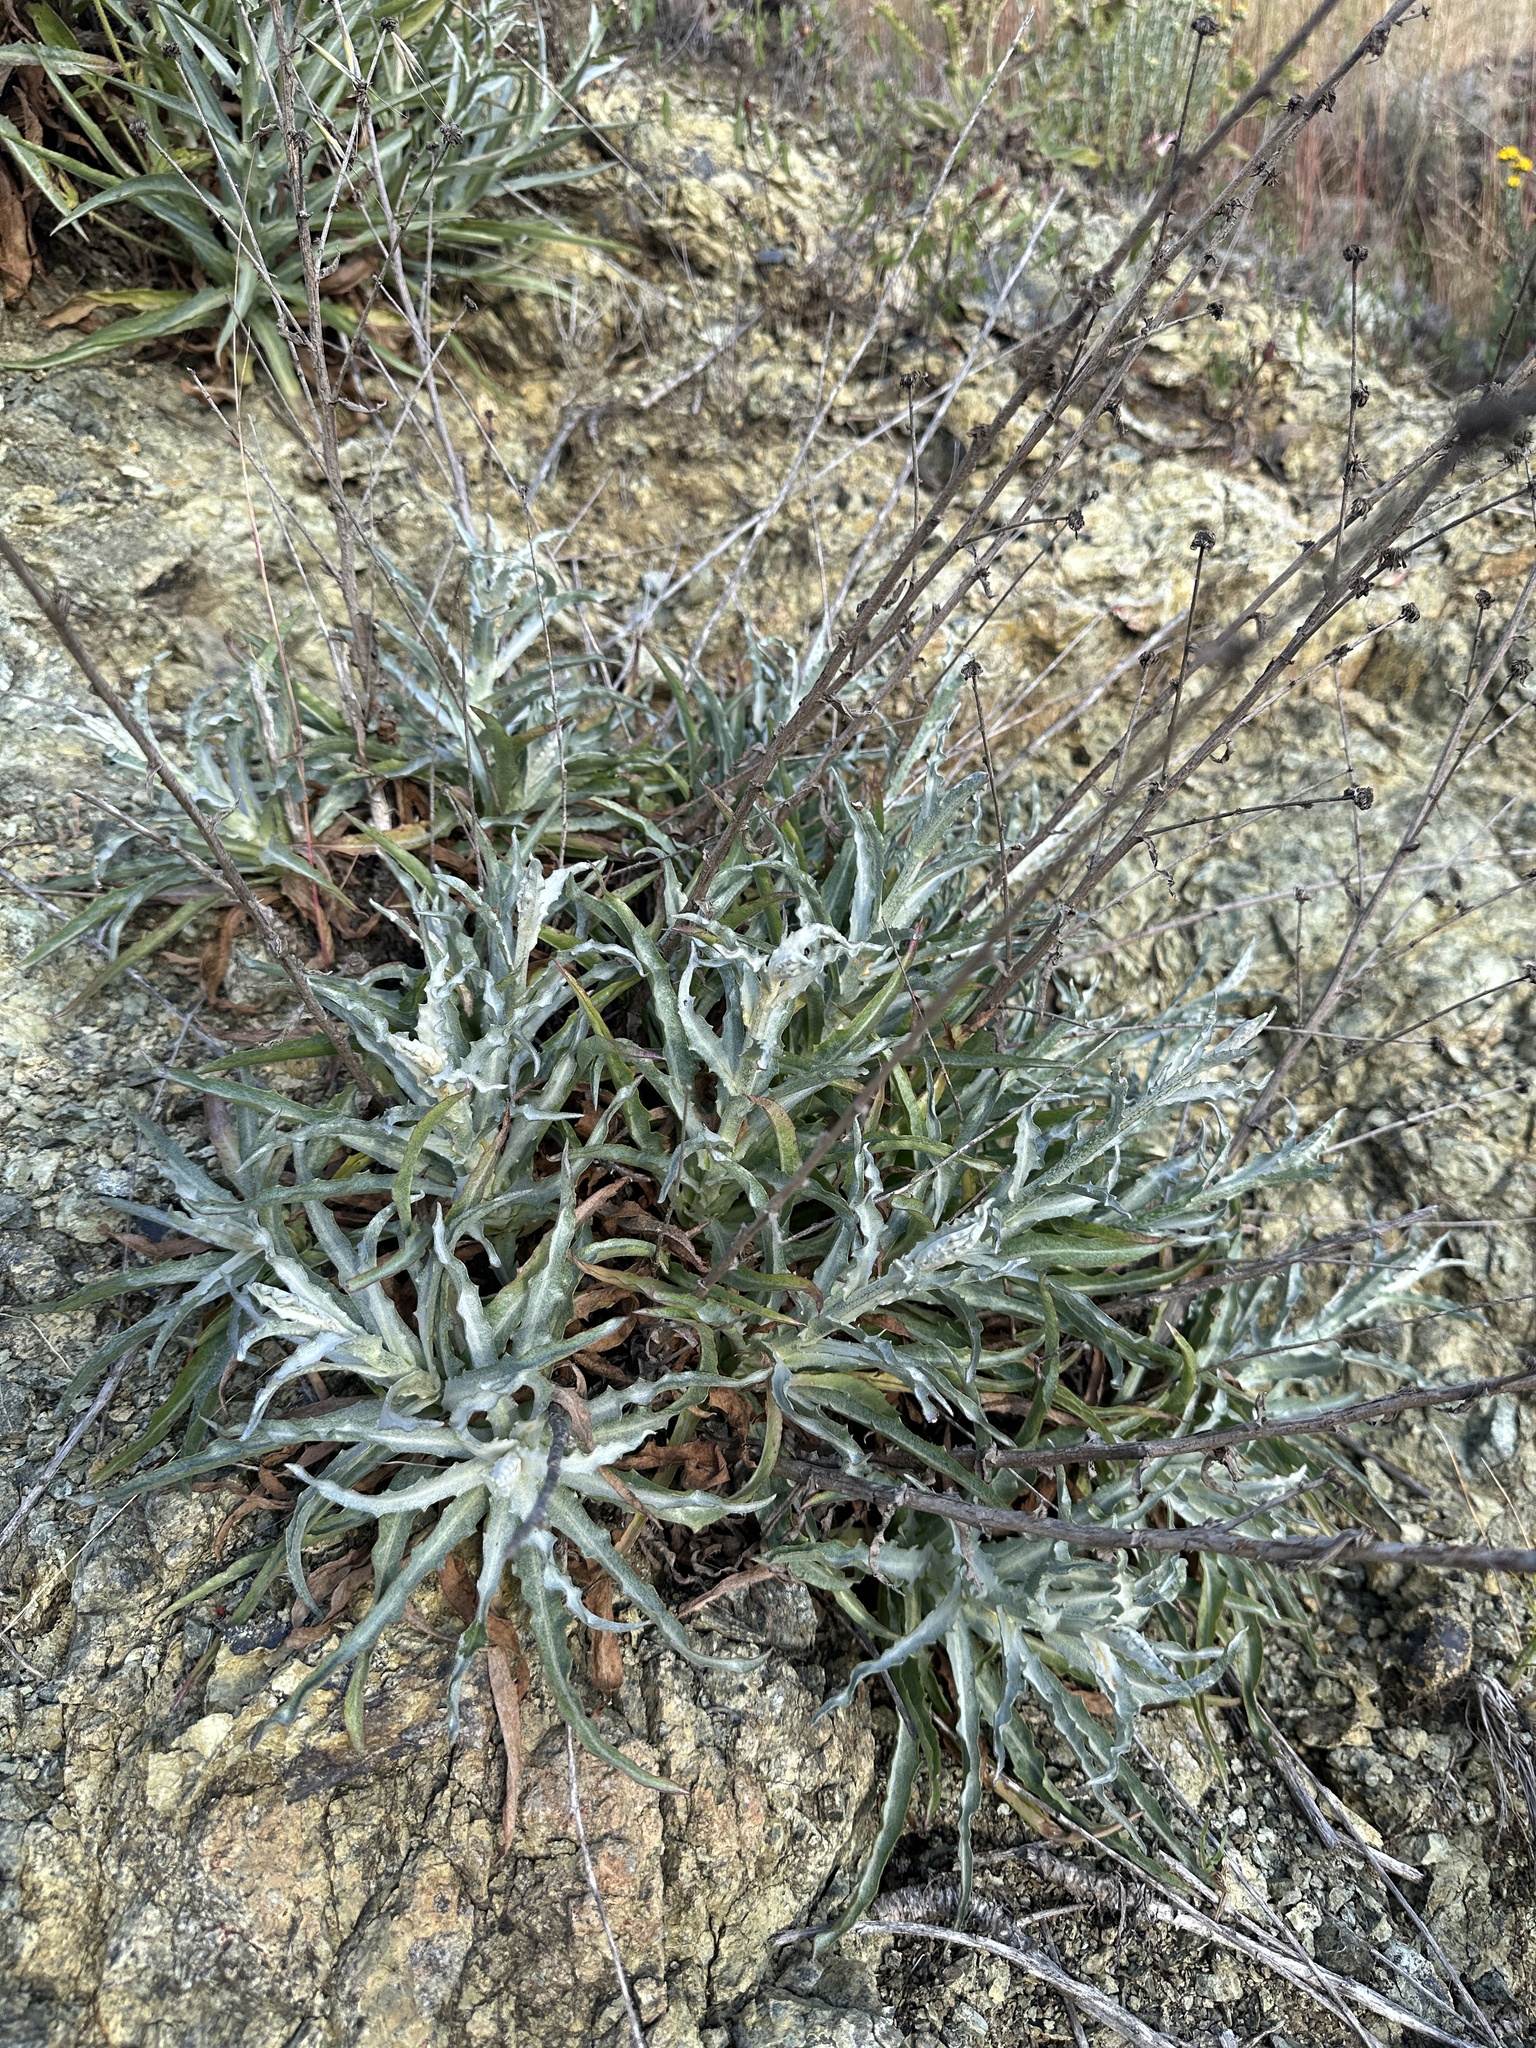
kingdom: Plantae
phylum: Tracheophyta
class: Magnoliopsida
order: Asterales
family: Asteraceae
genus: Stephanomeria
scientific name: Stephanomeria cichoriacea
